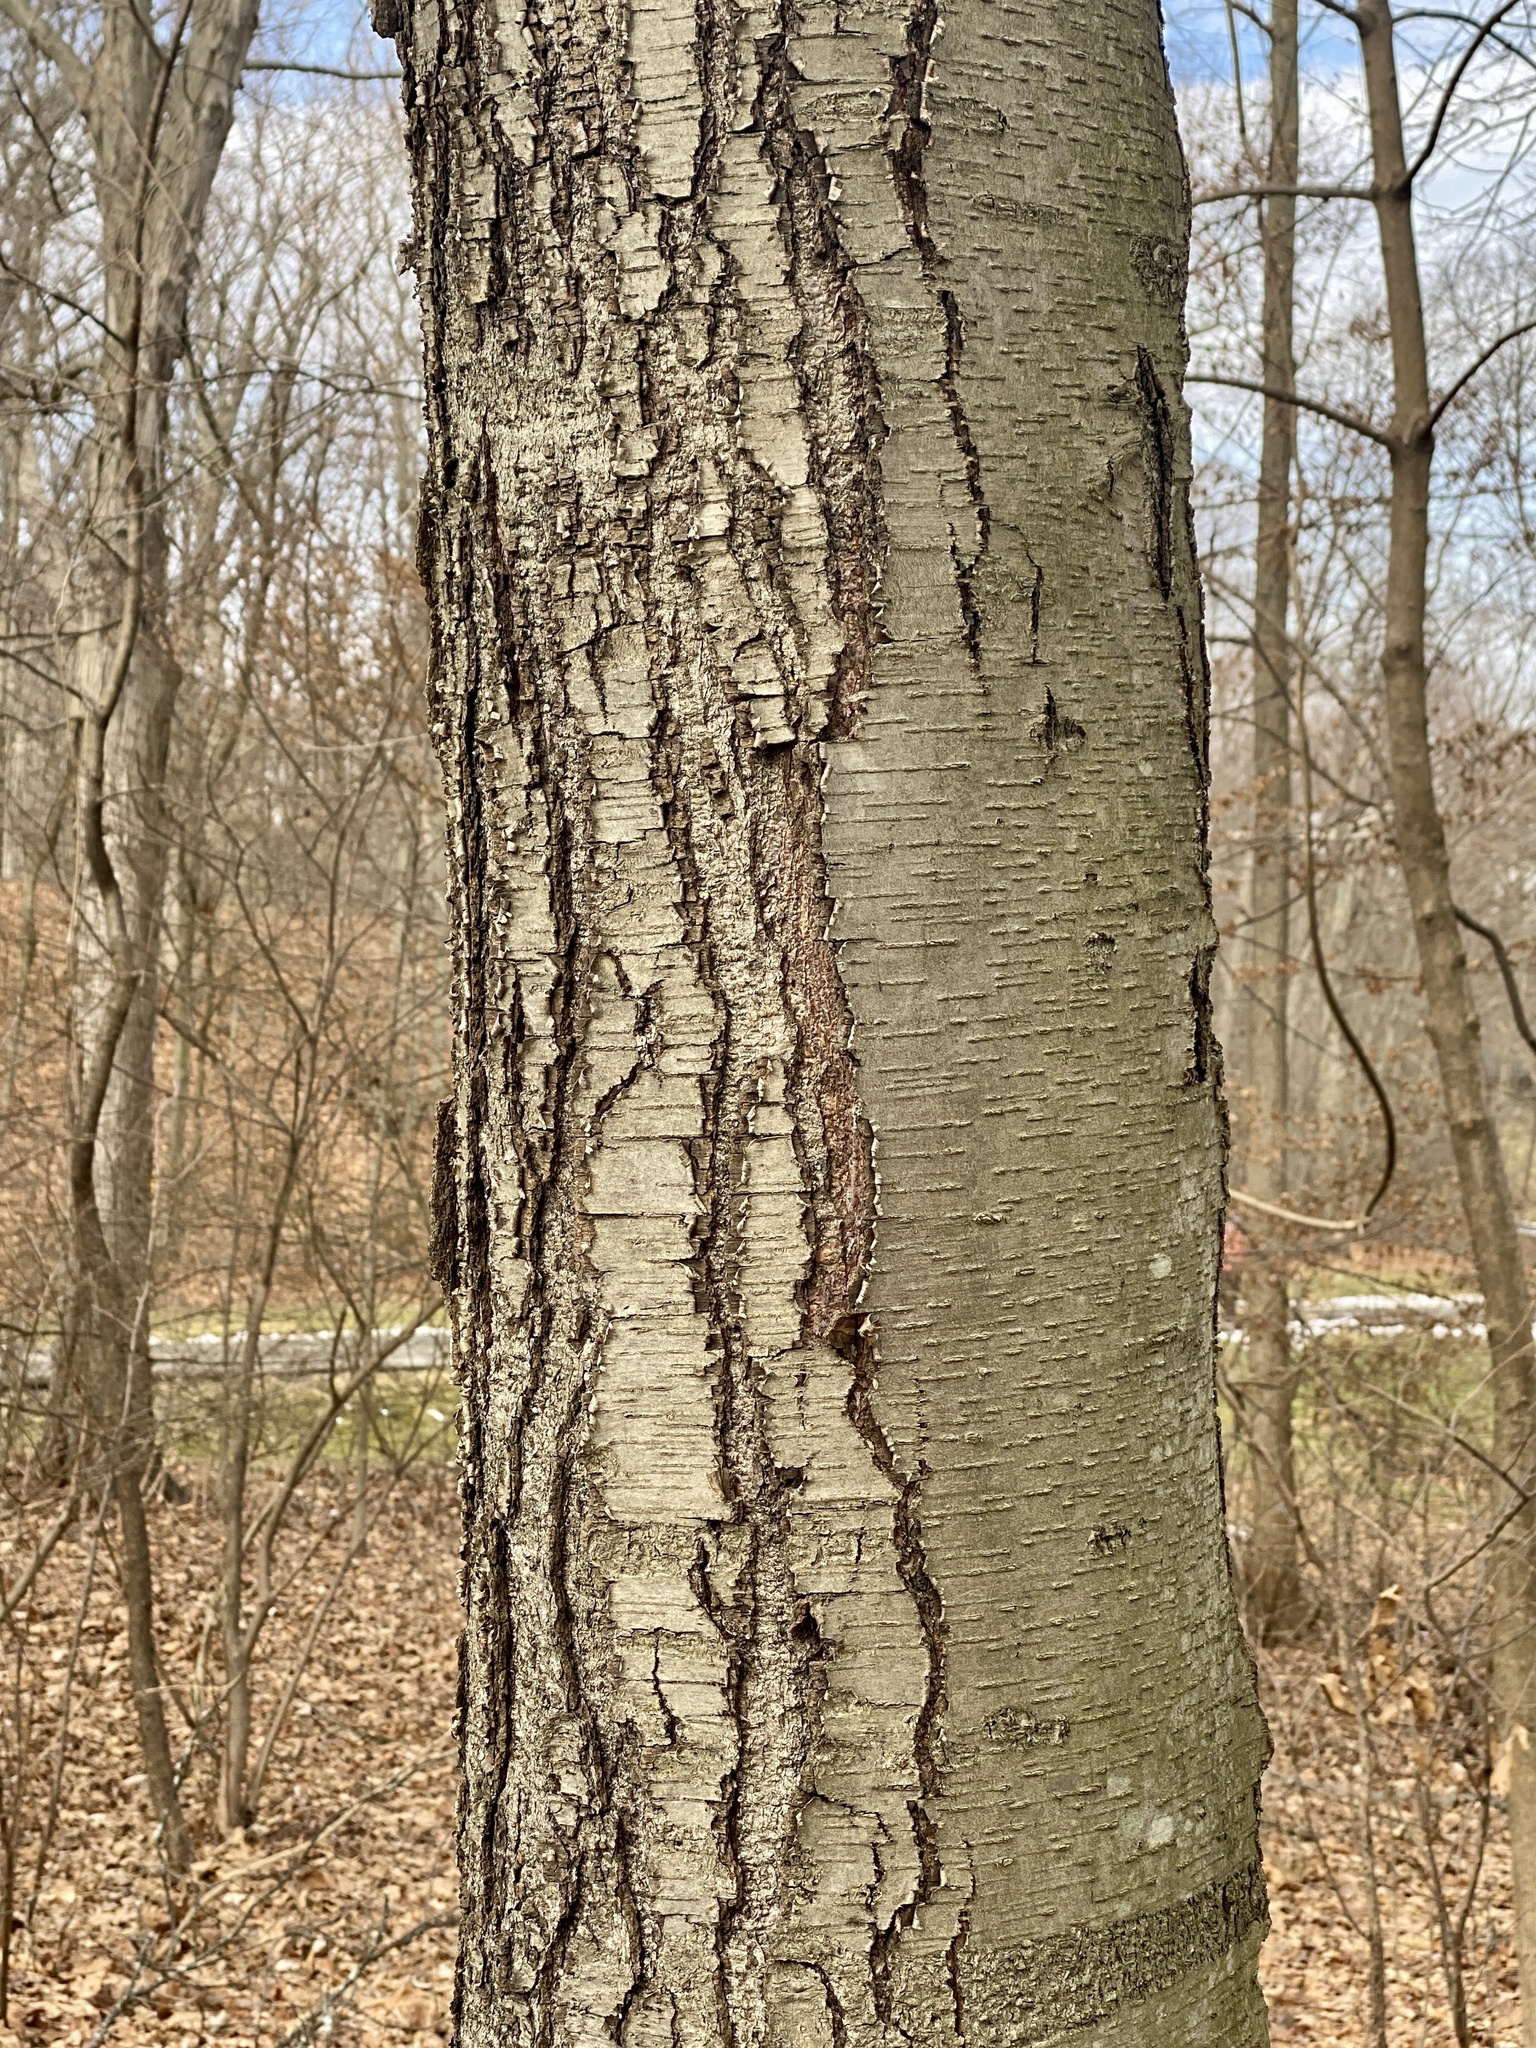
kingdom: Plantae
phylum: Tracheophyta
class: Magnoliopsida
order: Fagales
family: Betulaceae
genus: Betula
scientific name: Betula lenta
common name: Black birch
